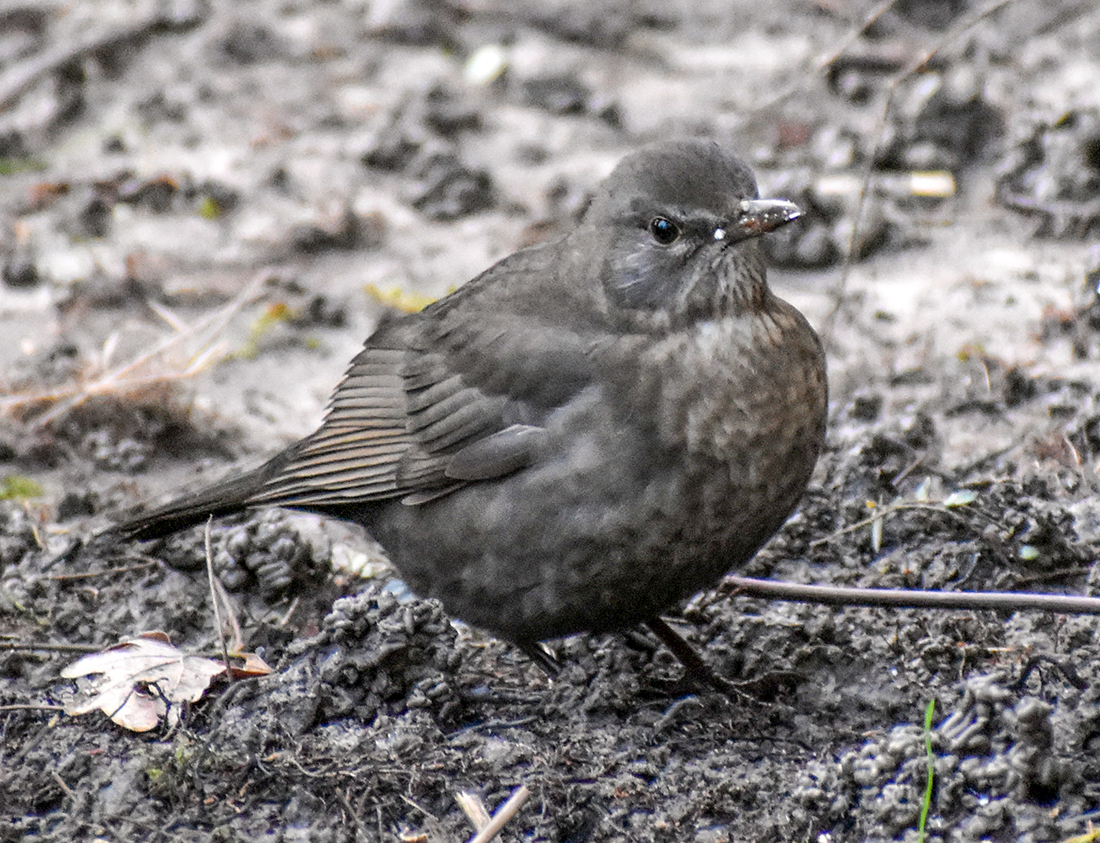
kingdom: Animalia
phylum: Chordata
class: Aves
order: Passeriformes
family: Turdidae
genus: Turdus
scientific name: Turdus merula
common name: Common blackbird
